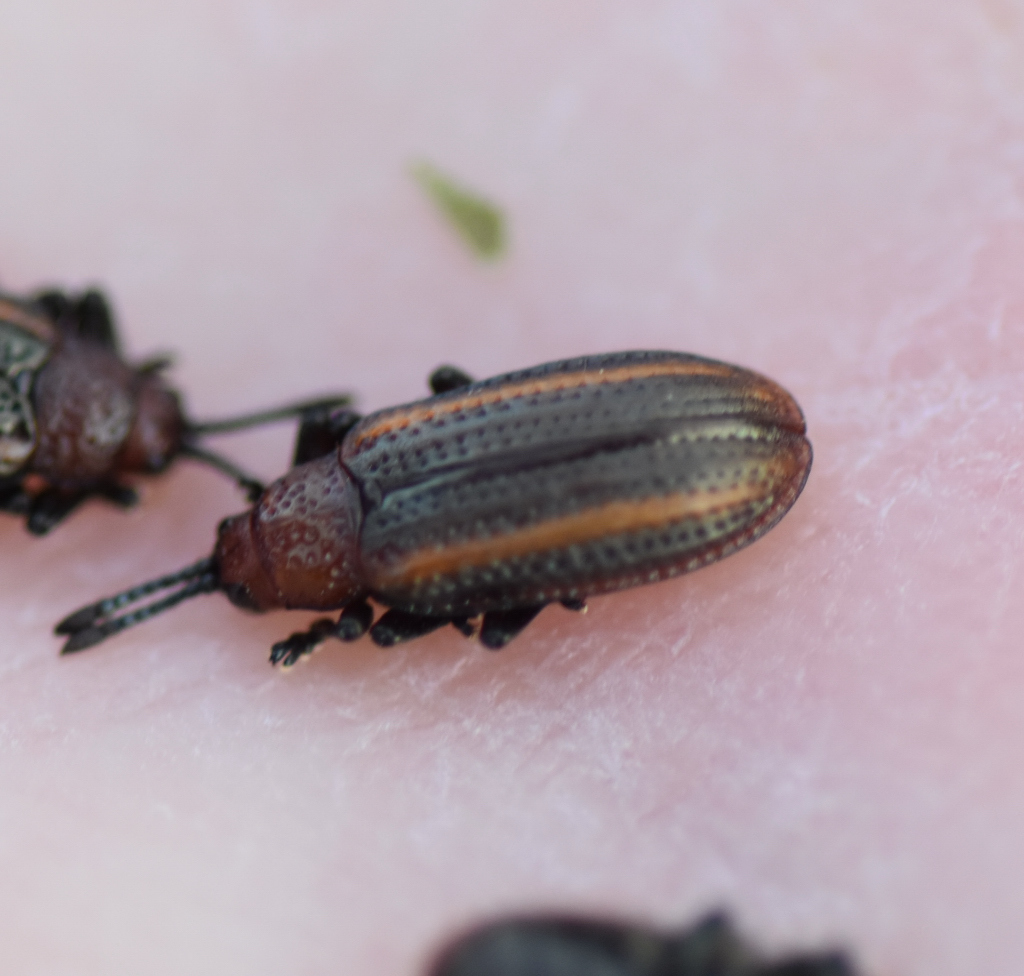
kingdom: Animalia
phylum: Arthropoda
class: Insecta
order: Coleoptera
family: Chrysomelidae
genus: Microrhopala
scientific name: Microrhopala vittata
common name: Goldenrod leaf miner beetle
